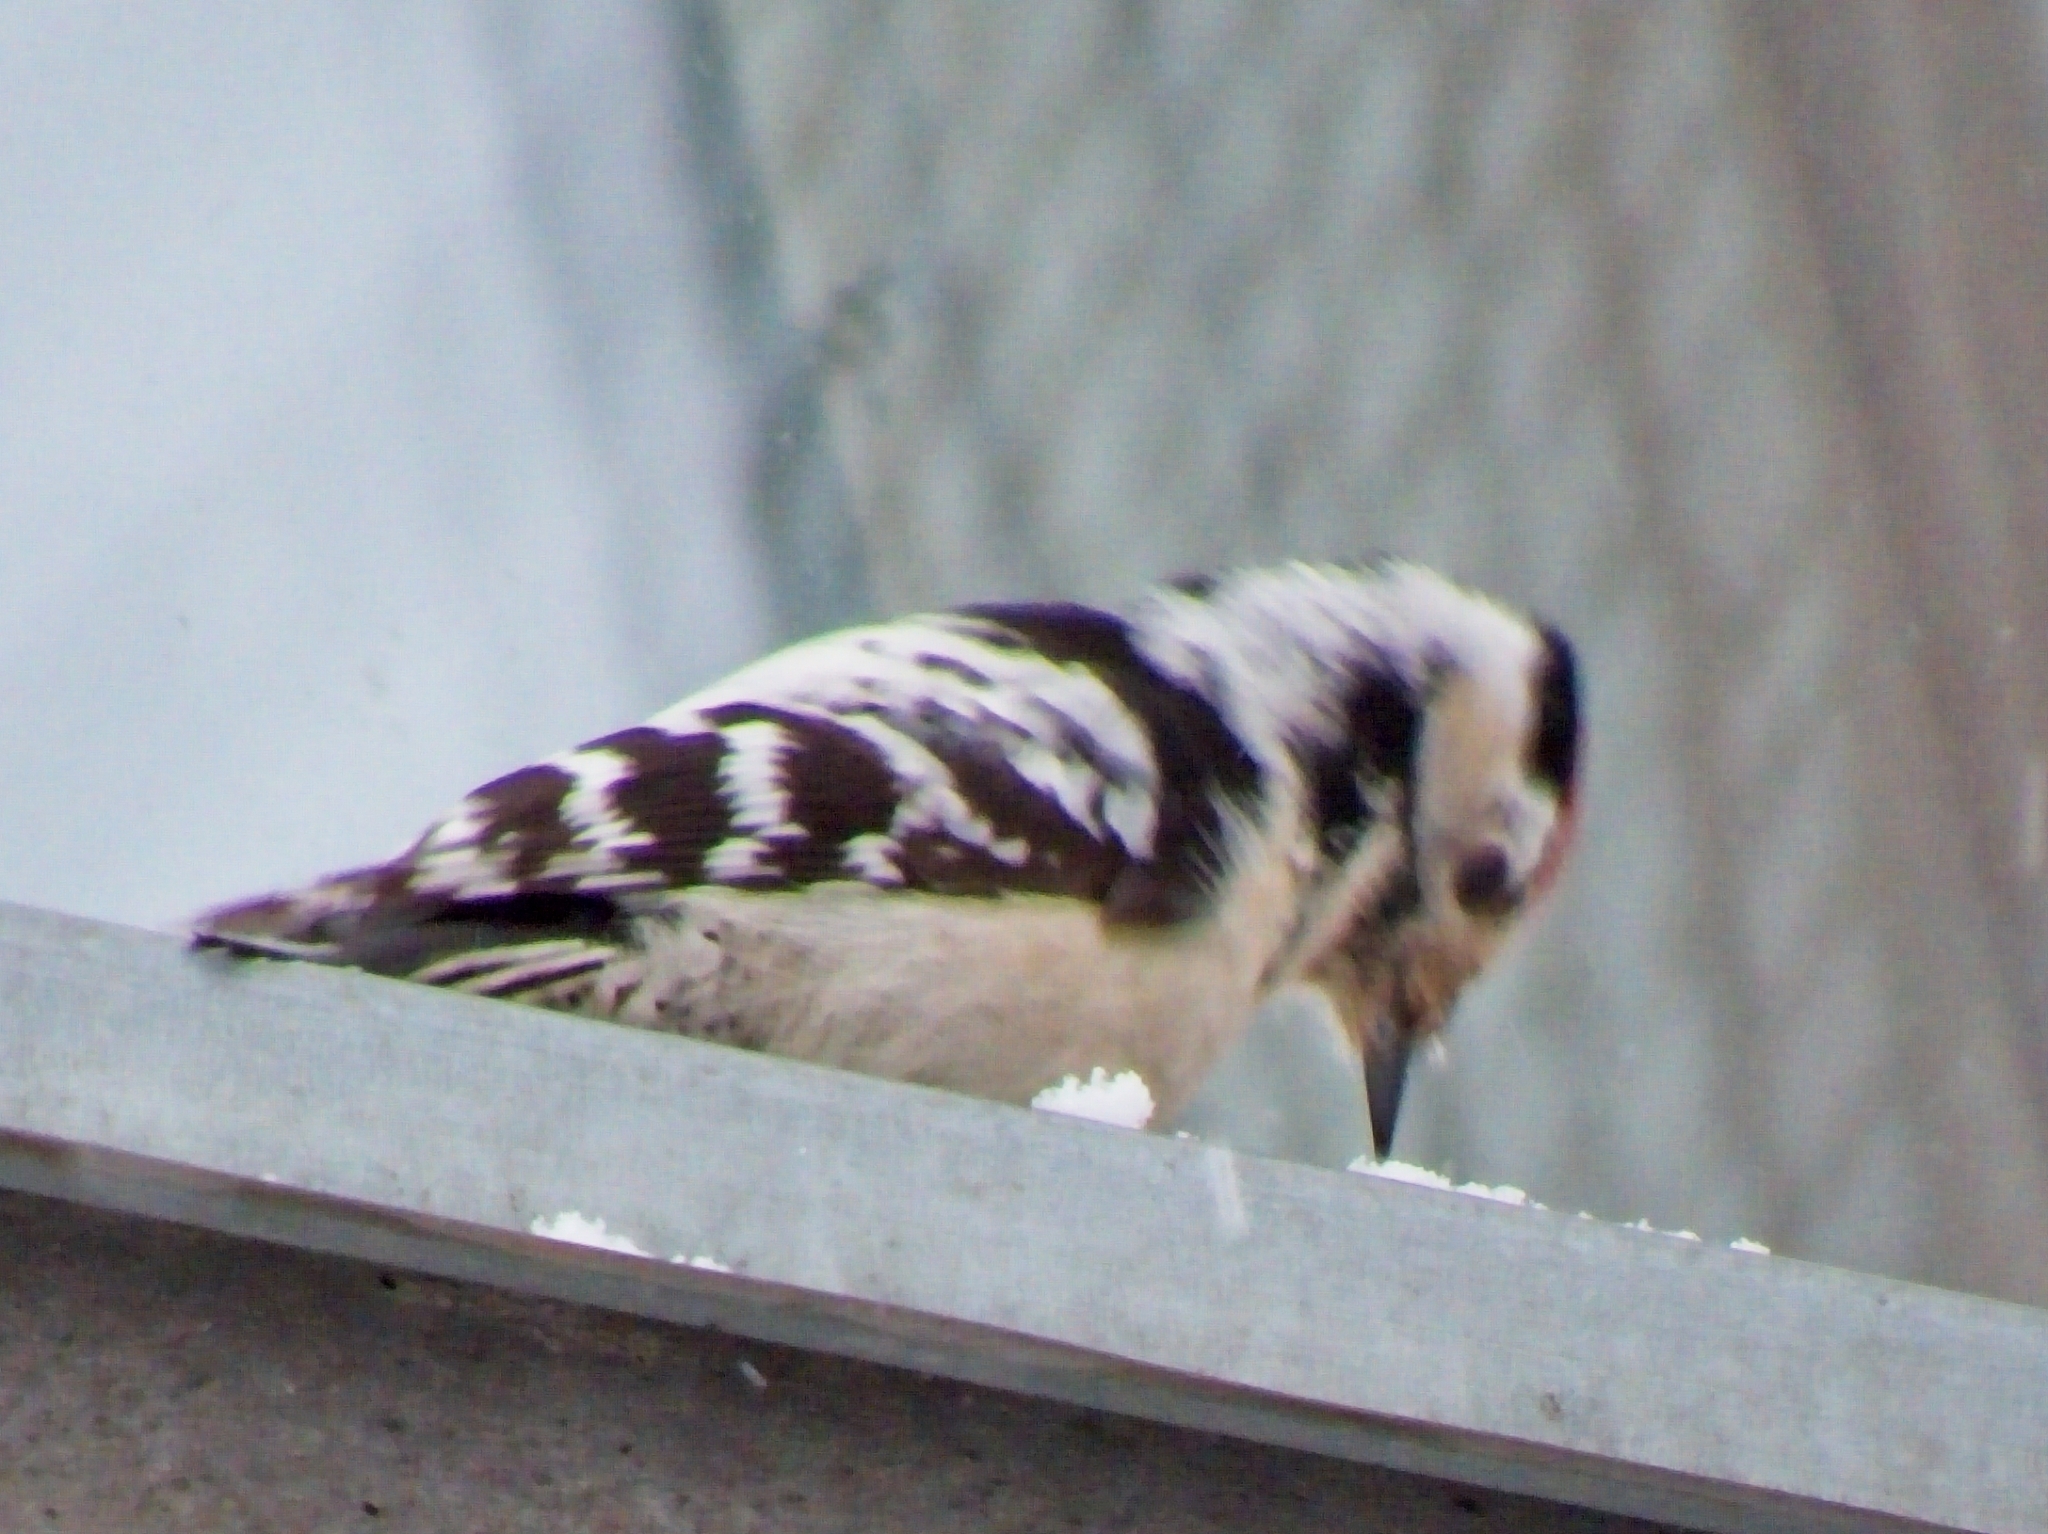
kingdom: Animalia
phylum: Chordata
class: Aves
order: Piciformes
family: Picidae
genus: Dryobates
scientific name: Dryobates minor
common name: Lesser spotted woodpecker
